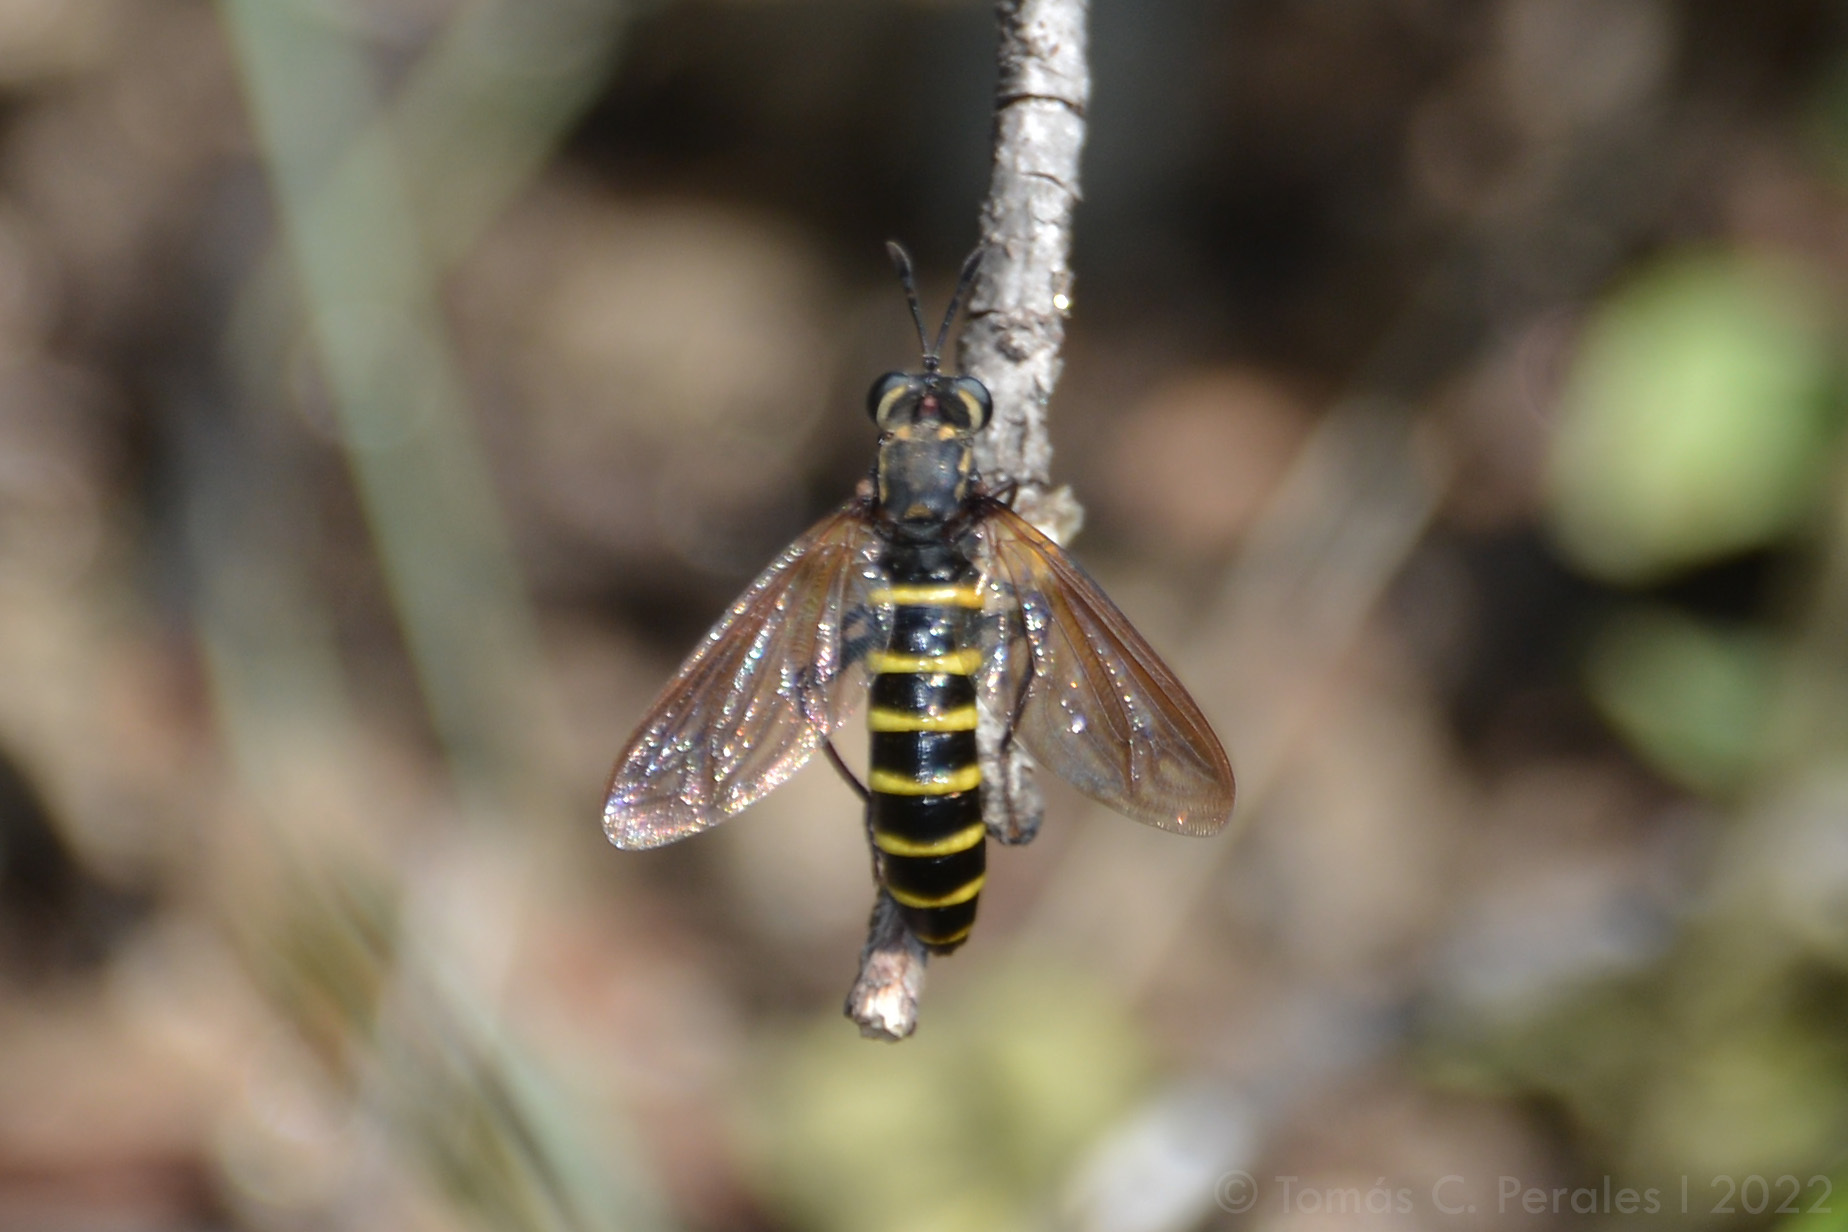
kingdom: Animalia
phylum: Arthropoda
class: Insecta
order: Diptera
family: Mydidae
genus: Messiasia
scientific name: Messiasia notospila
